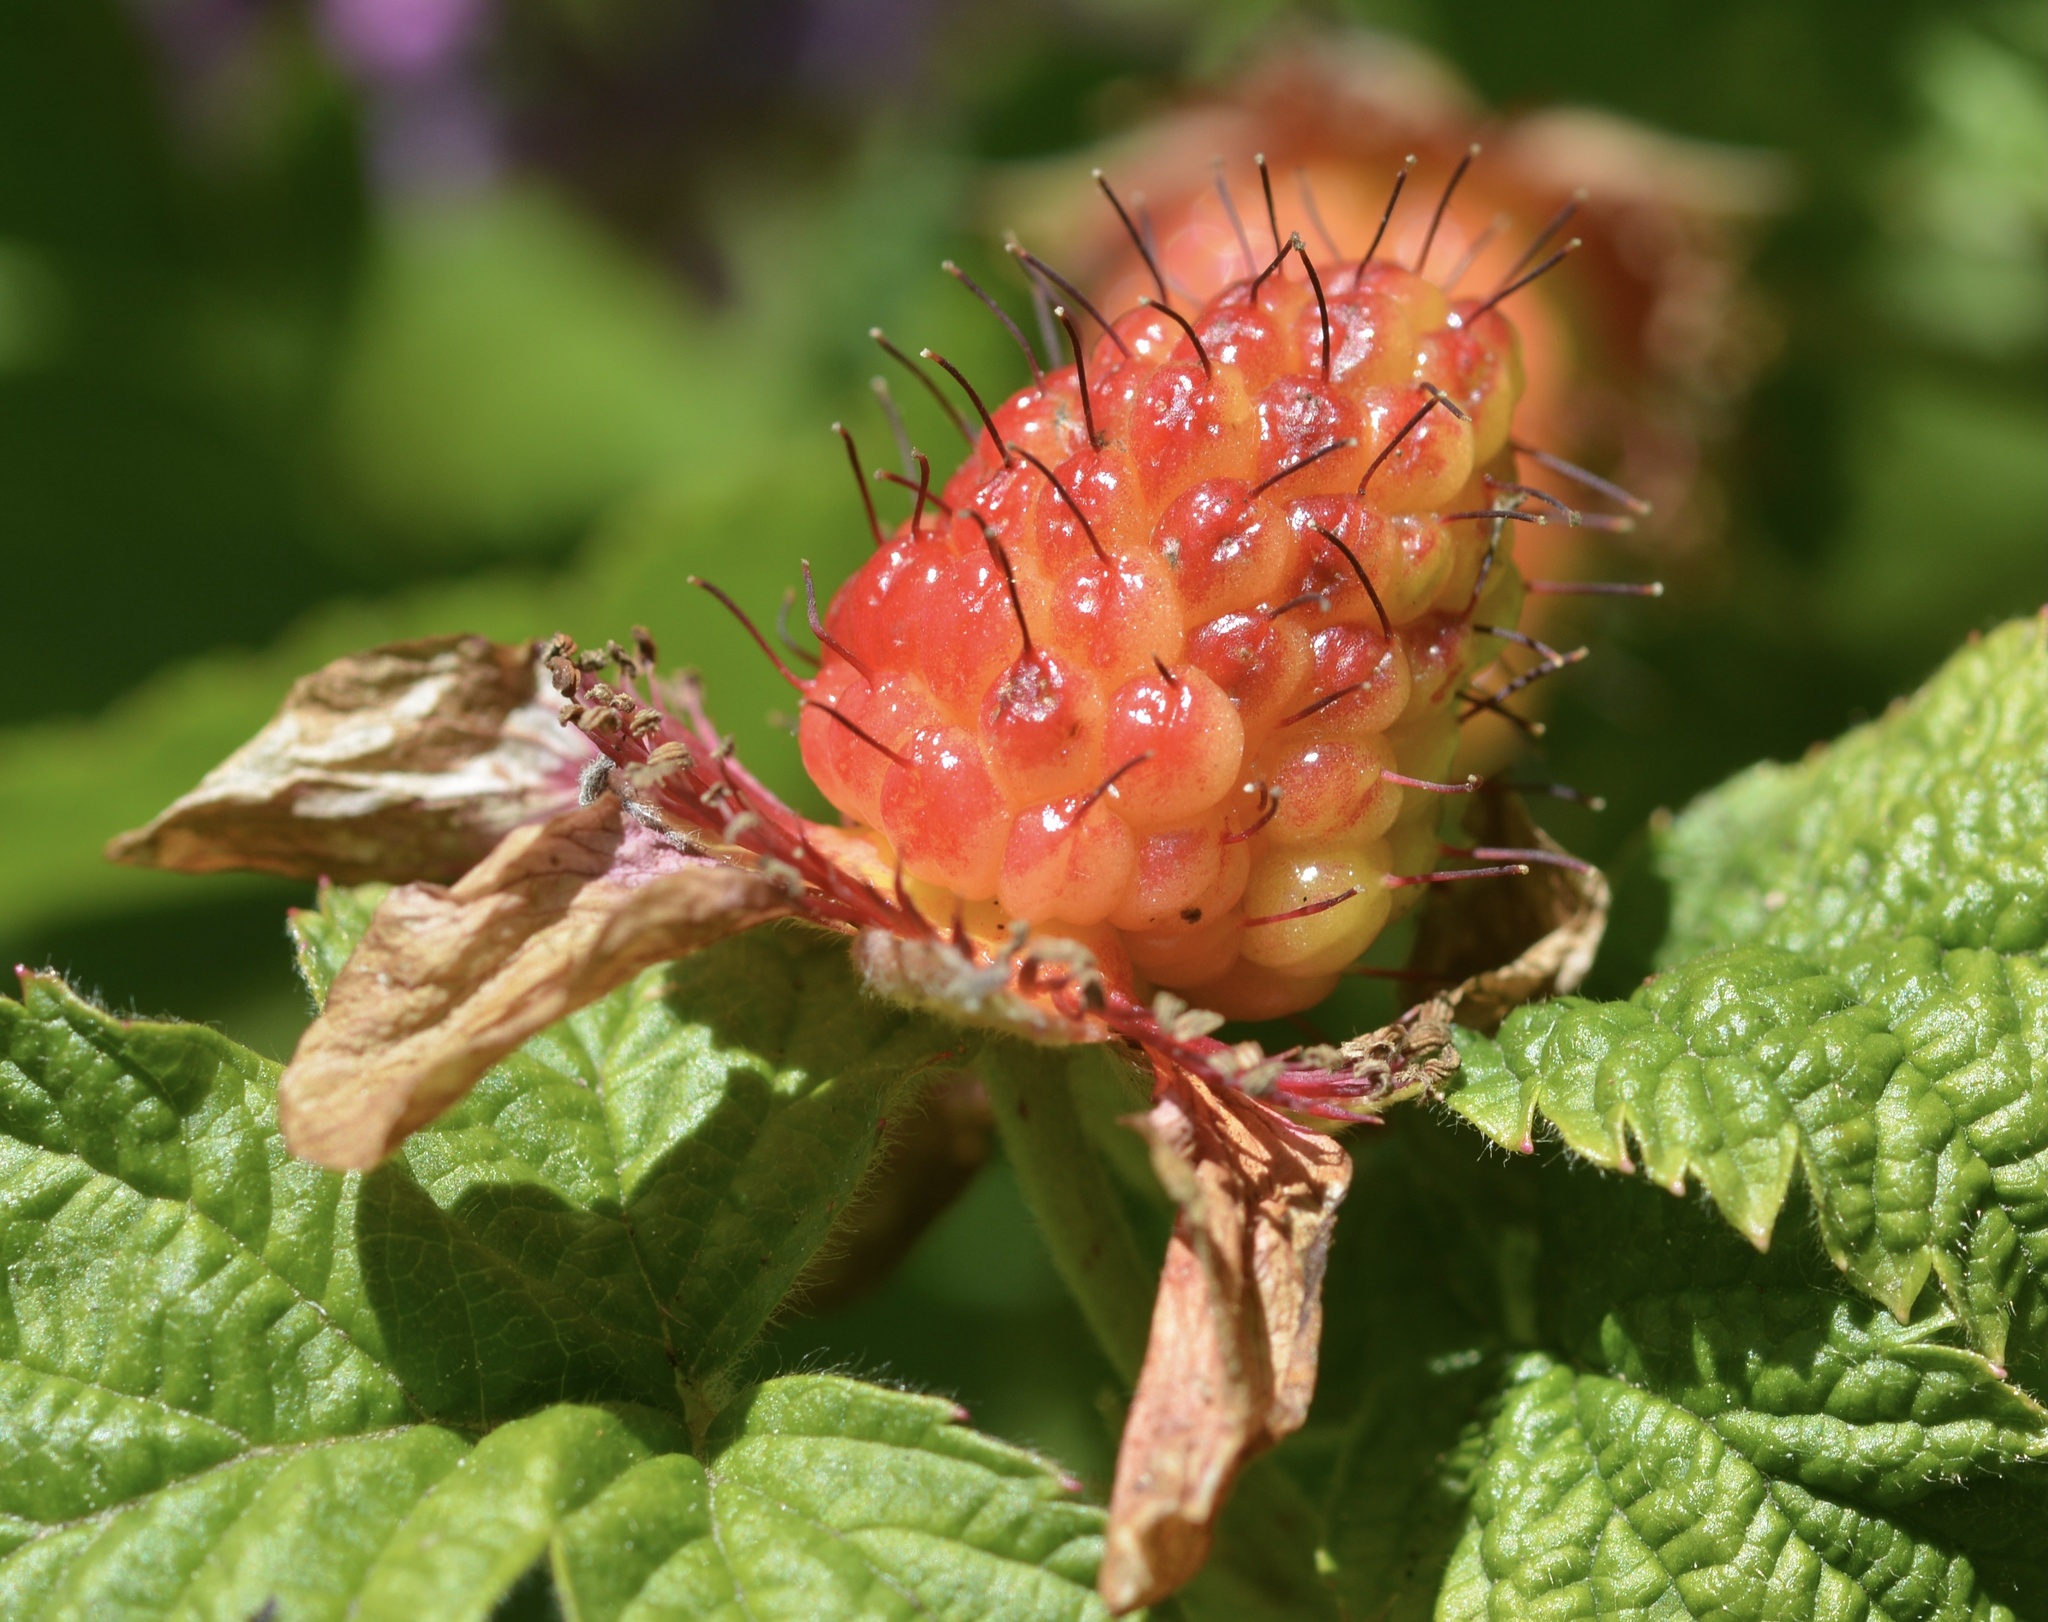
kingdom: Plantae
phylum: Tracheophyta
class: Magnoliopsida
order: Rosales
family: Rosaceae
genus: Rubus
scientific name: Rubus spectabilis
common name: Salmonberry
